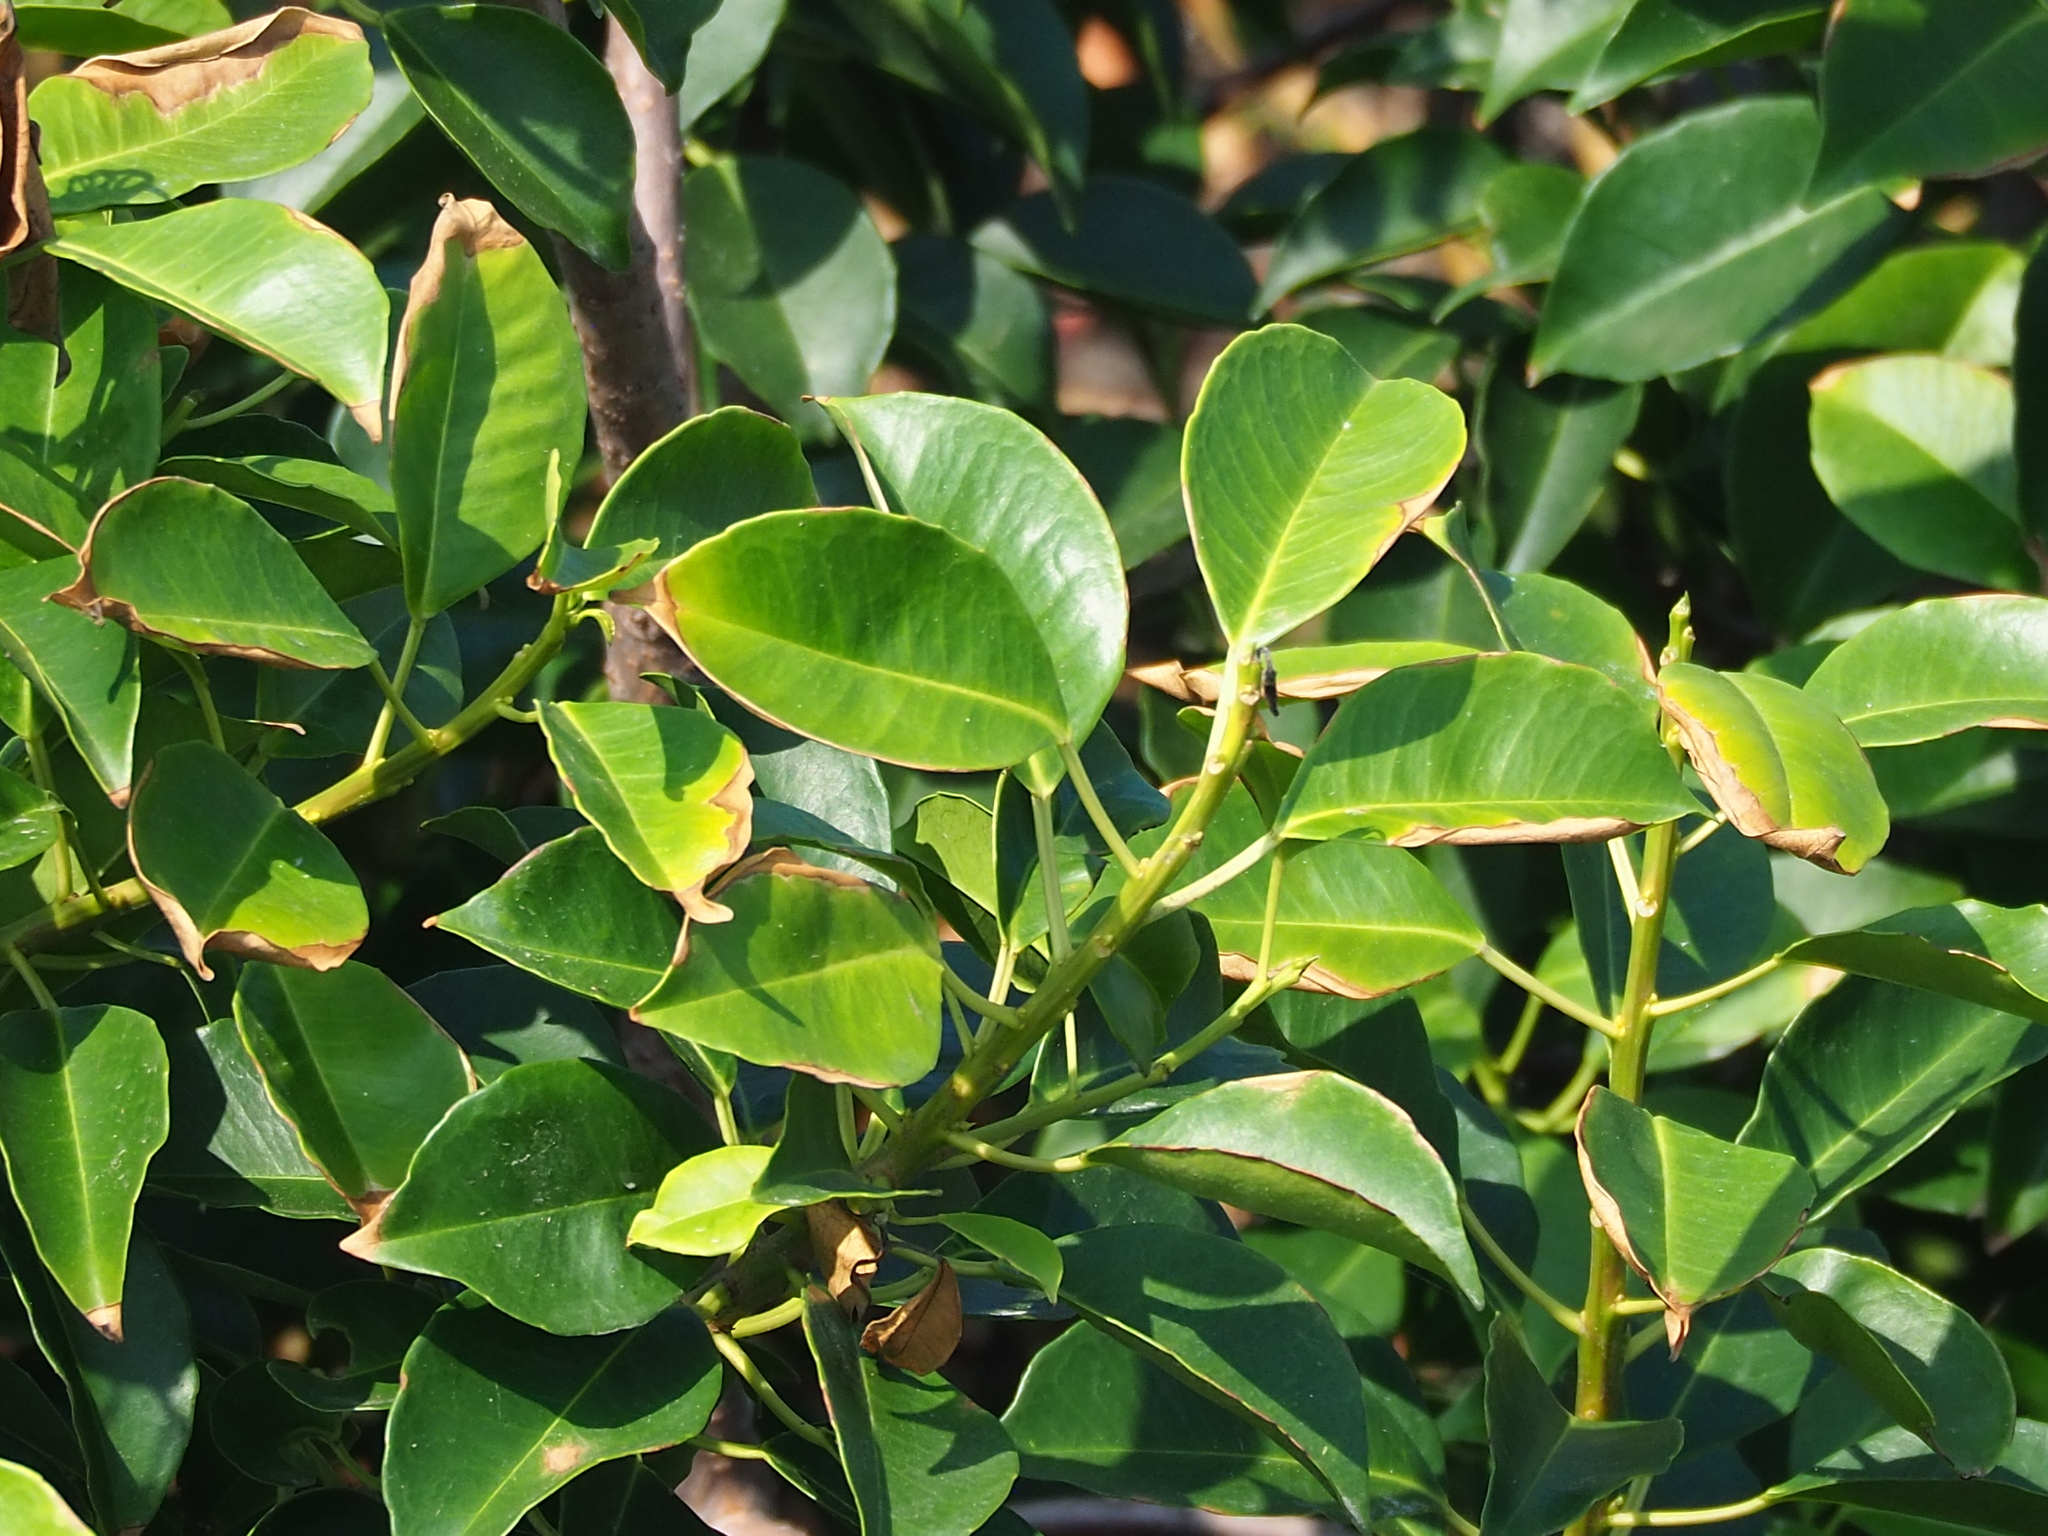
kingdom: Plantae
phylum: Tracheophyta
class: Magnoliopsida
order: Malpighiales
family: Euphorbiaceae
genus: Excoecaria
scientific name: Excoecaria agallocha
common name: River poisontree
